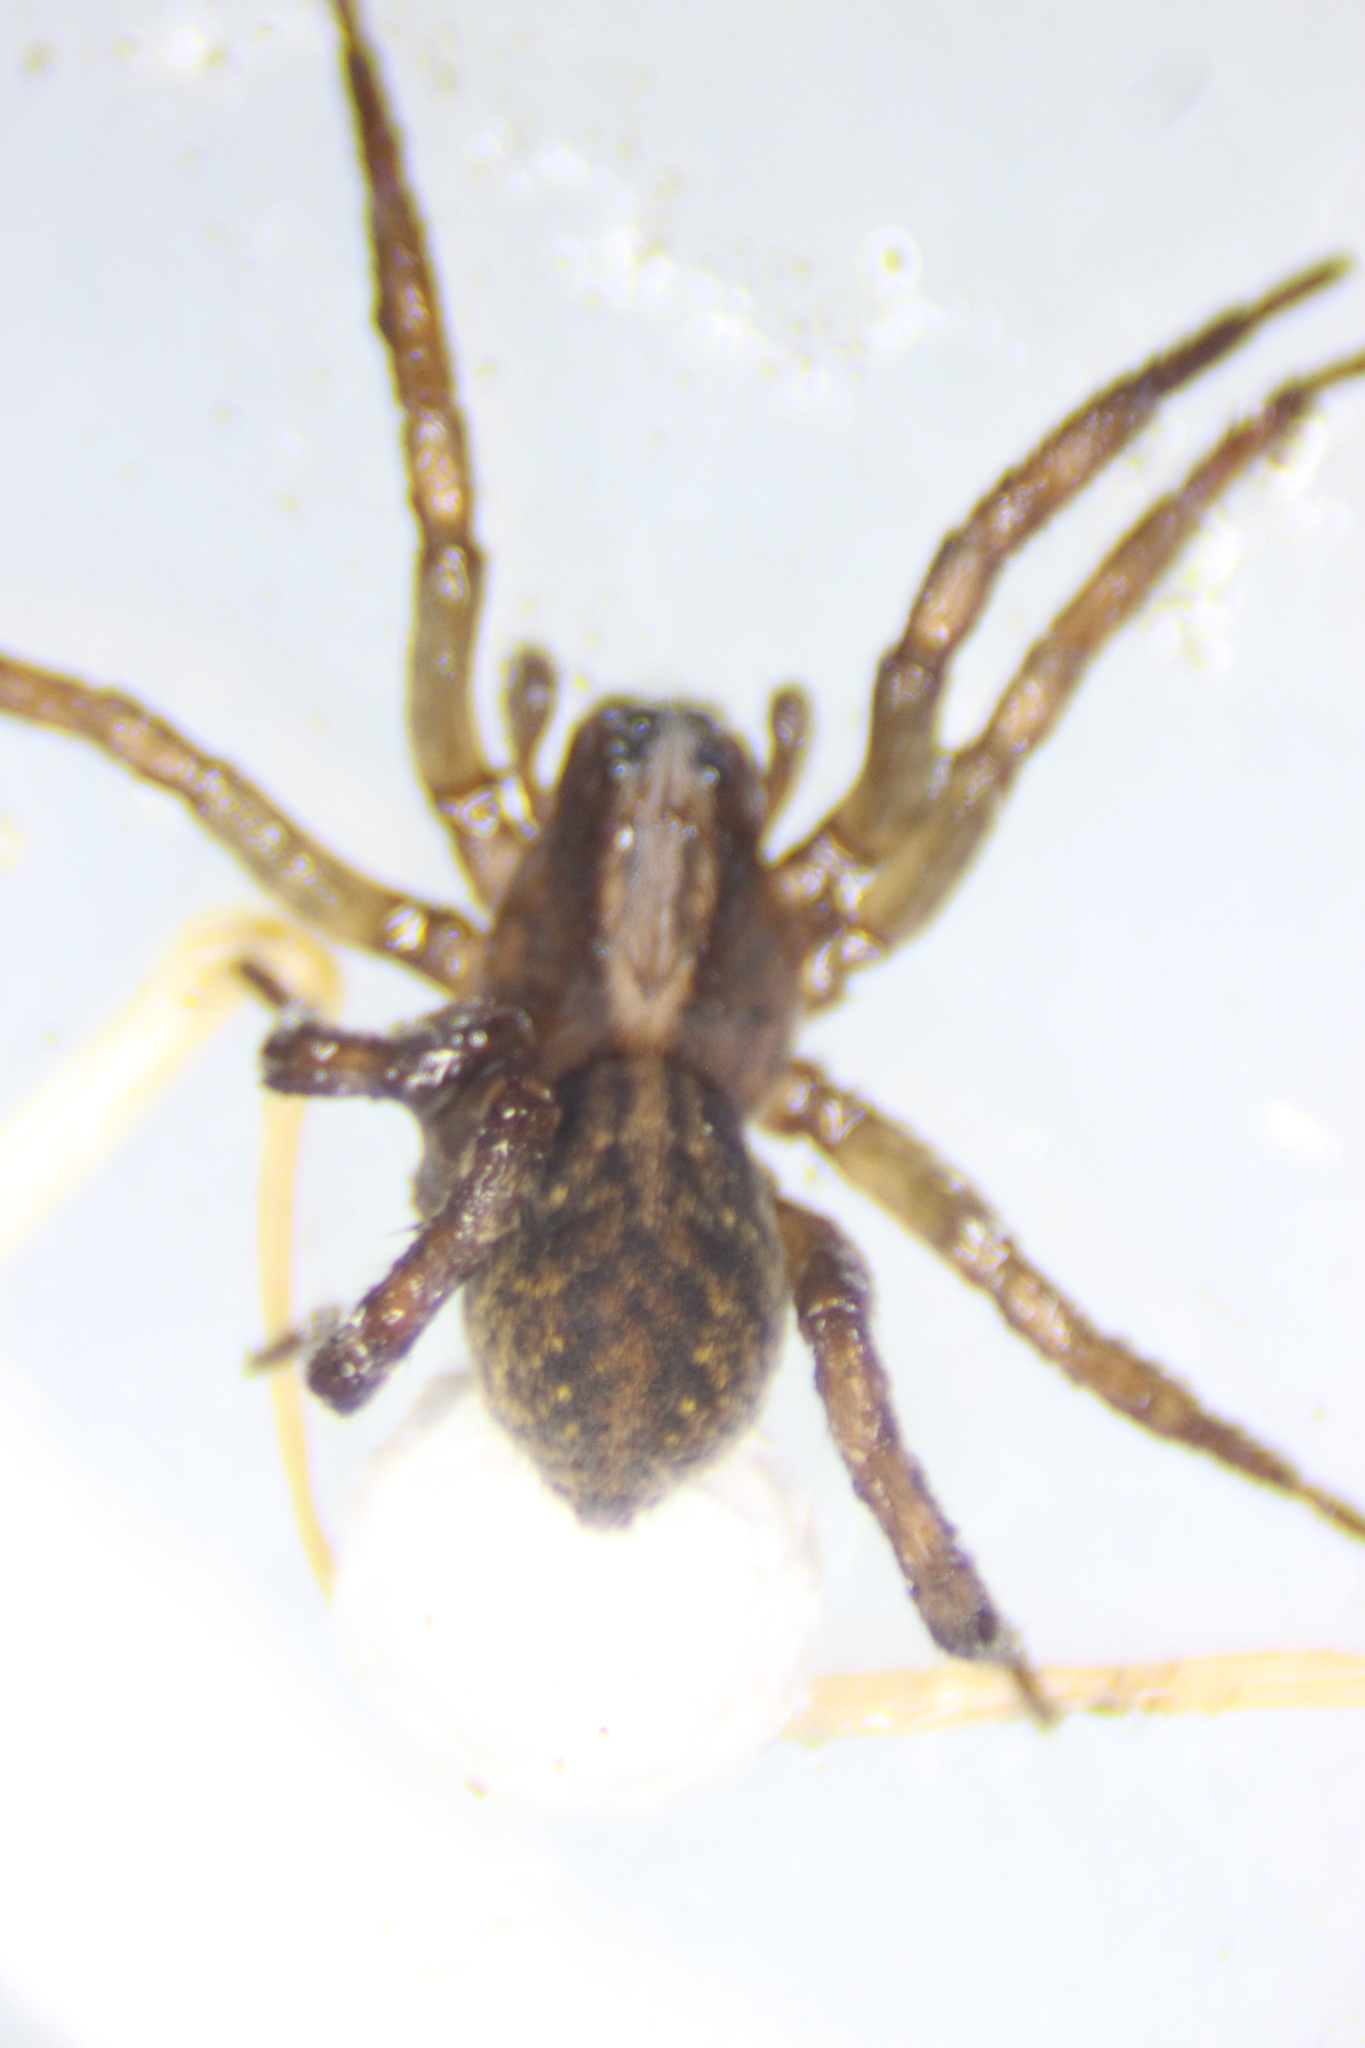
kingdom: Animalia
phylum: Arthropoda
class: Arachnida
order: Araneae
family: Lycosidae
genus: Trochosa
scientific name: Trochosa terricola
